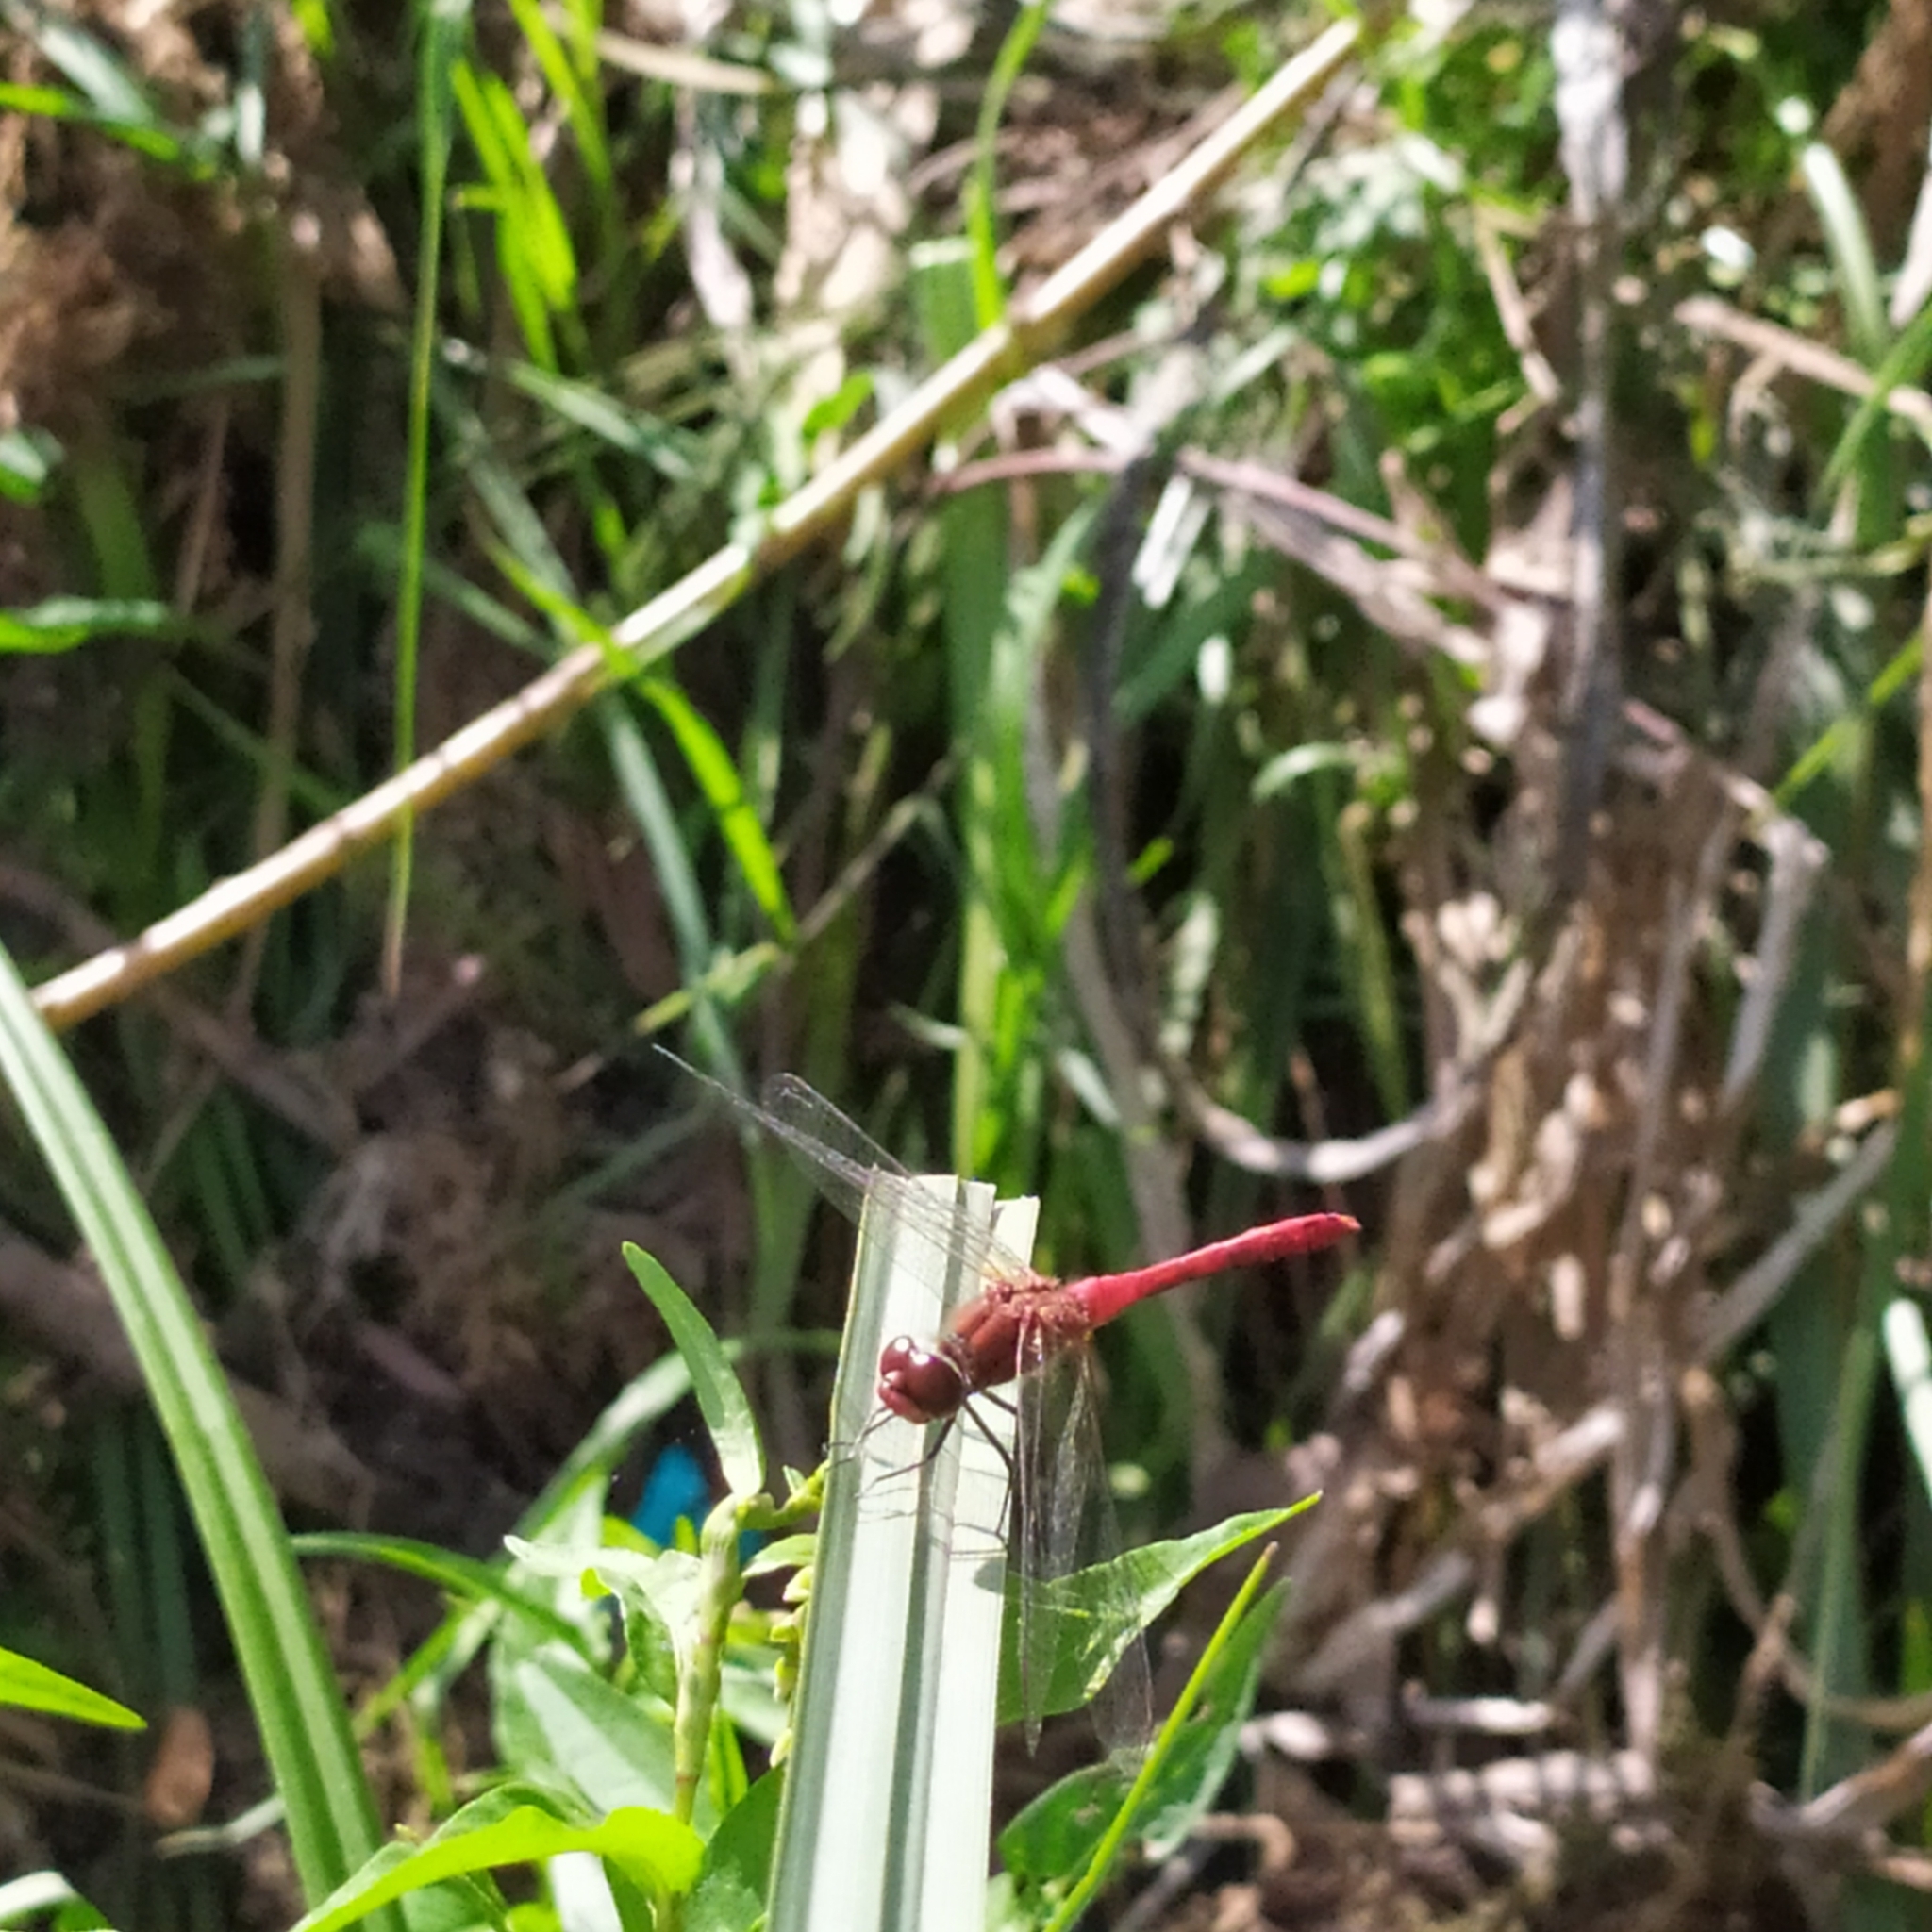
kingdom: Animalia
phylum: Arthropoda
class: Insecta
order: Odonata
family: Libellulidae
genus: Sympetrum
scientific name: Sympetrum sanguineum
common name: Ruddy darter
